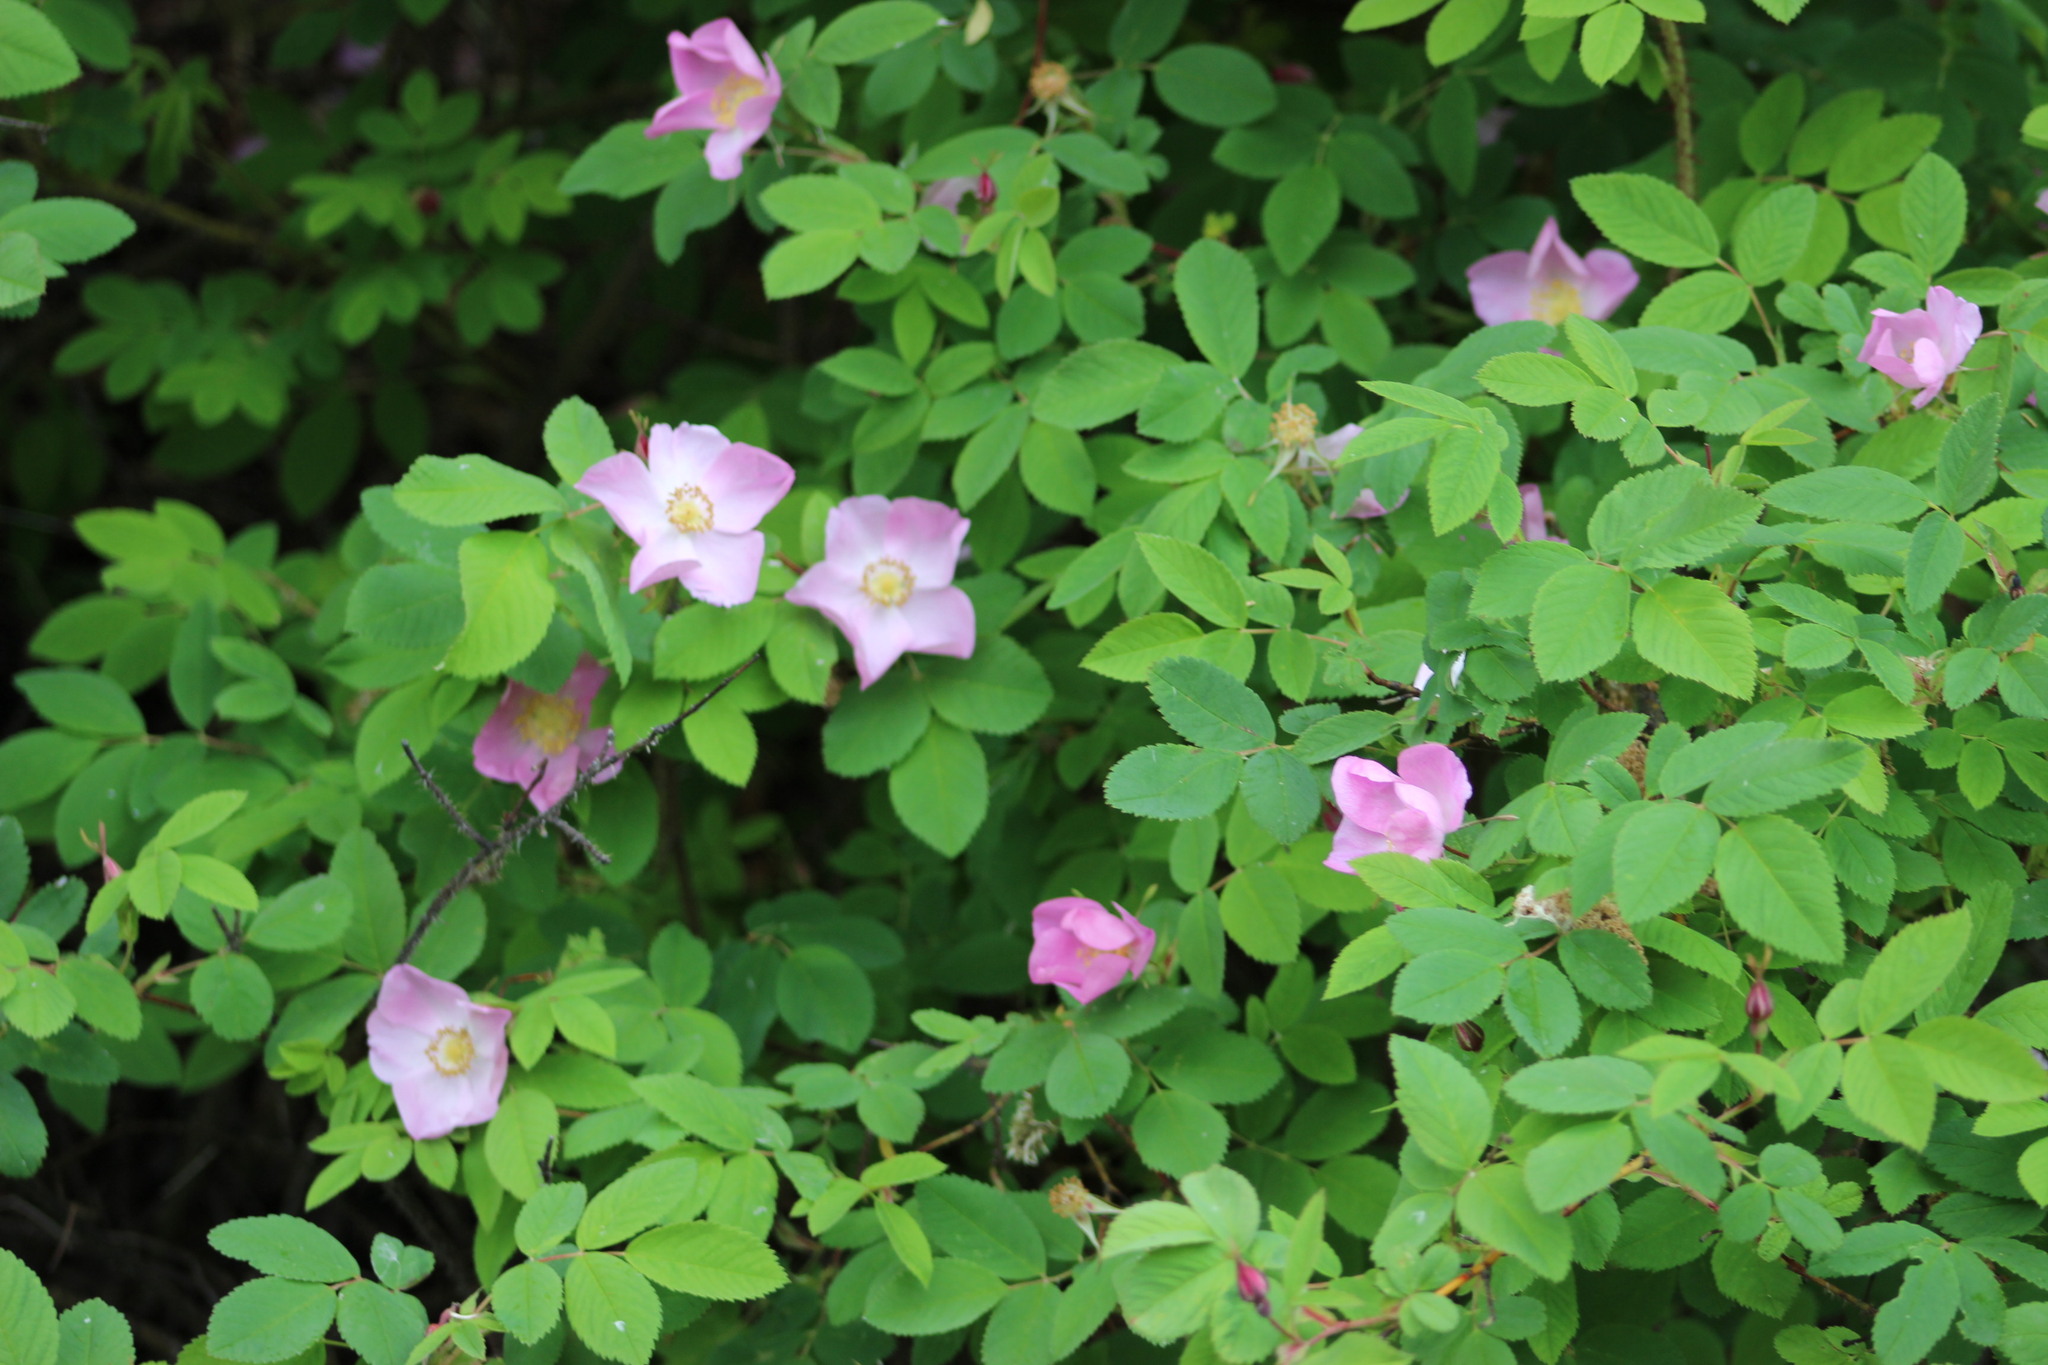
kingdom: Plantae
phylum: Tracheophyta
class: Magnoliopsida
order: Rosales
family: Rosaceae
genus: Rosa
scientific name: Rosa acicularis
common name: Prickly rose
